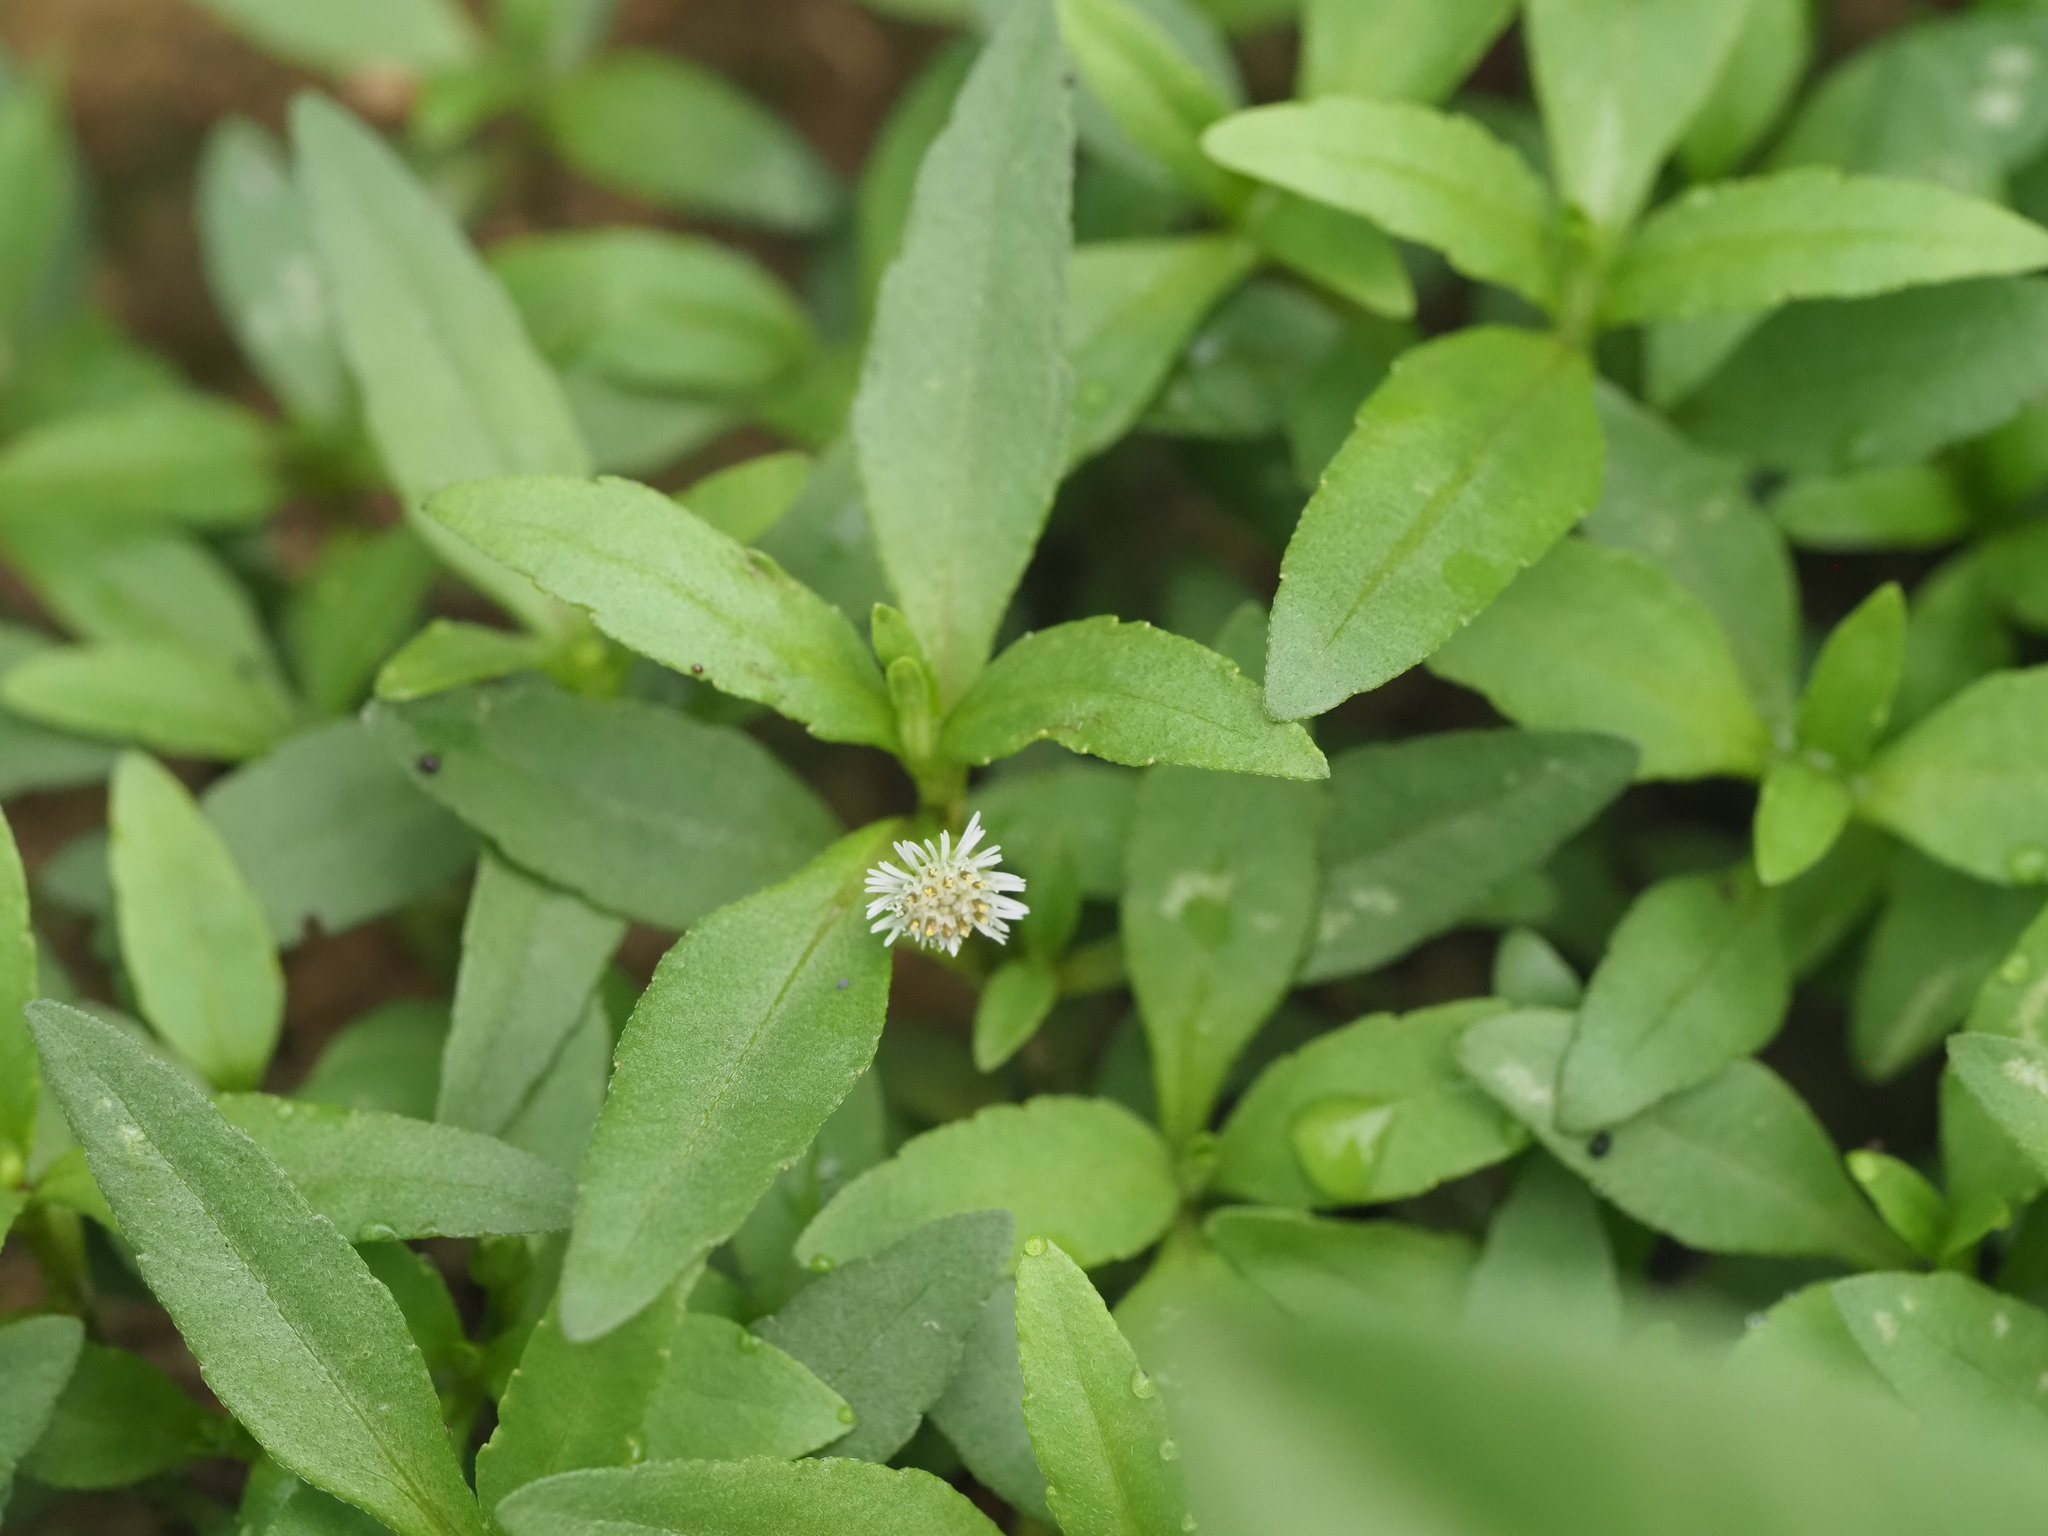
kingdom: Plantae
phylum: Tracheophyta
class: Magnoliopsida
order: Asterales
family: Asteraceae
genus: Eclipta
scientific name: Eclipta prostrata
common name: False daisy
